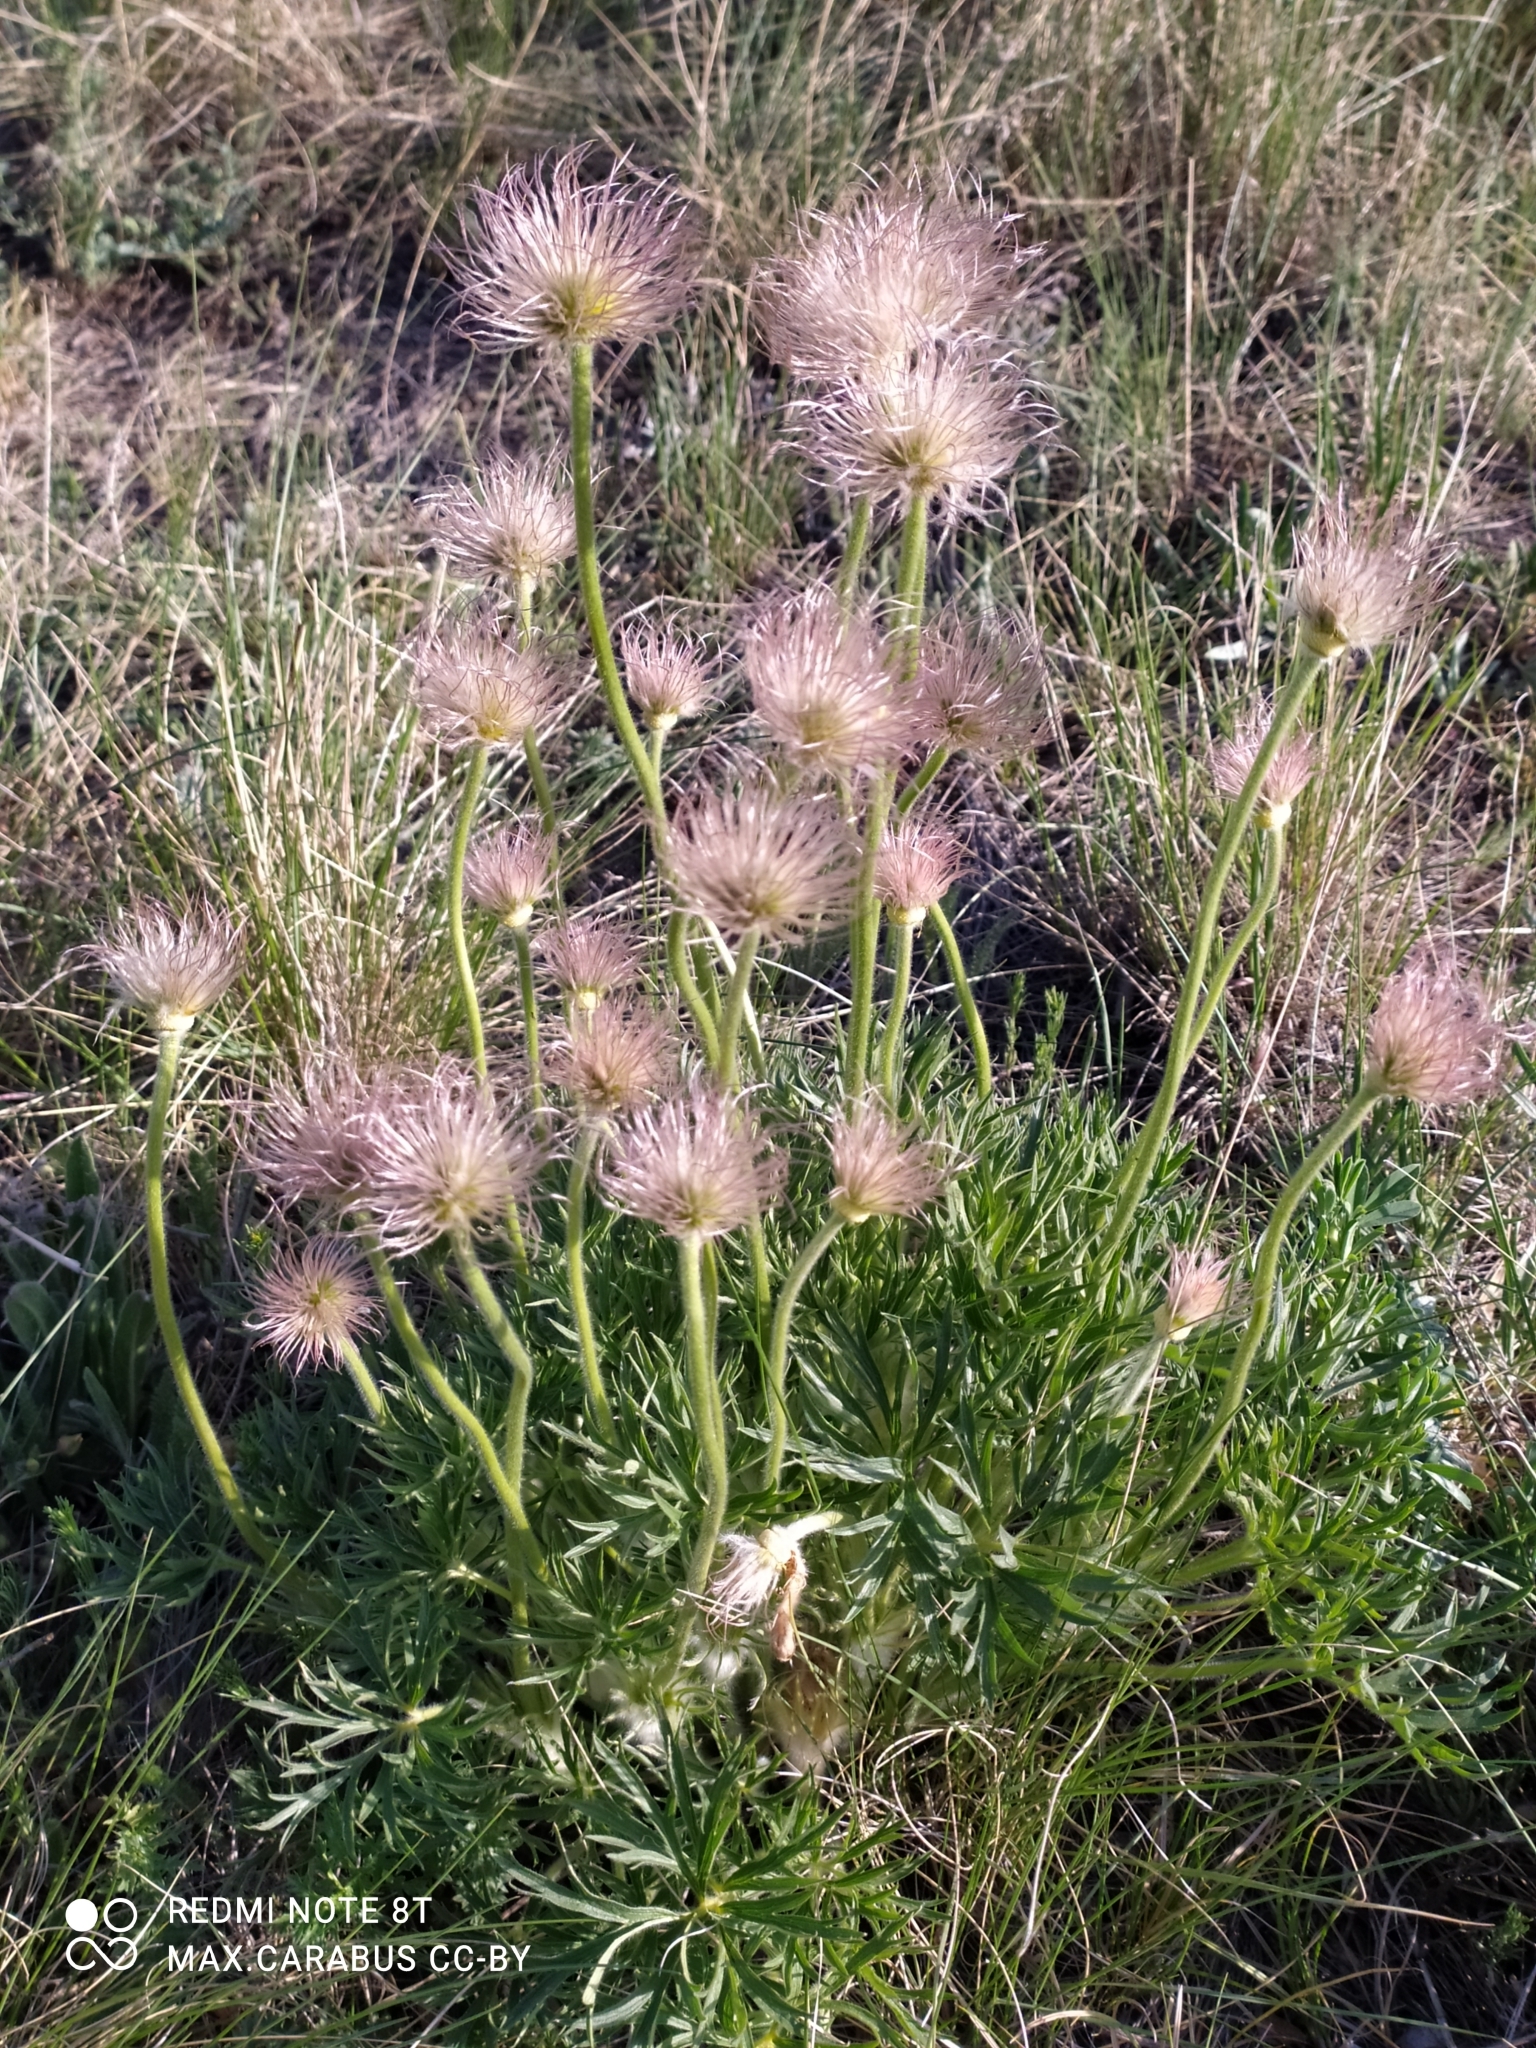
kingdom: Plantae
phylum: Tracheophyta
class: Magnoliopsida
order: Ranunculales
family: Ranunculaceae
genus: Pulsatilla
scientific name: Pulsatilla patens
